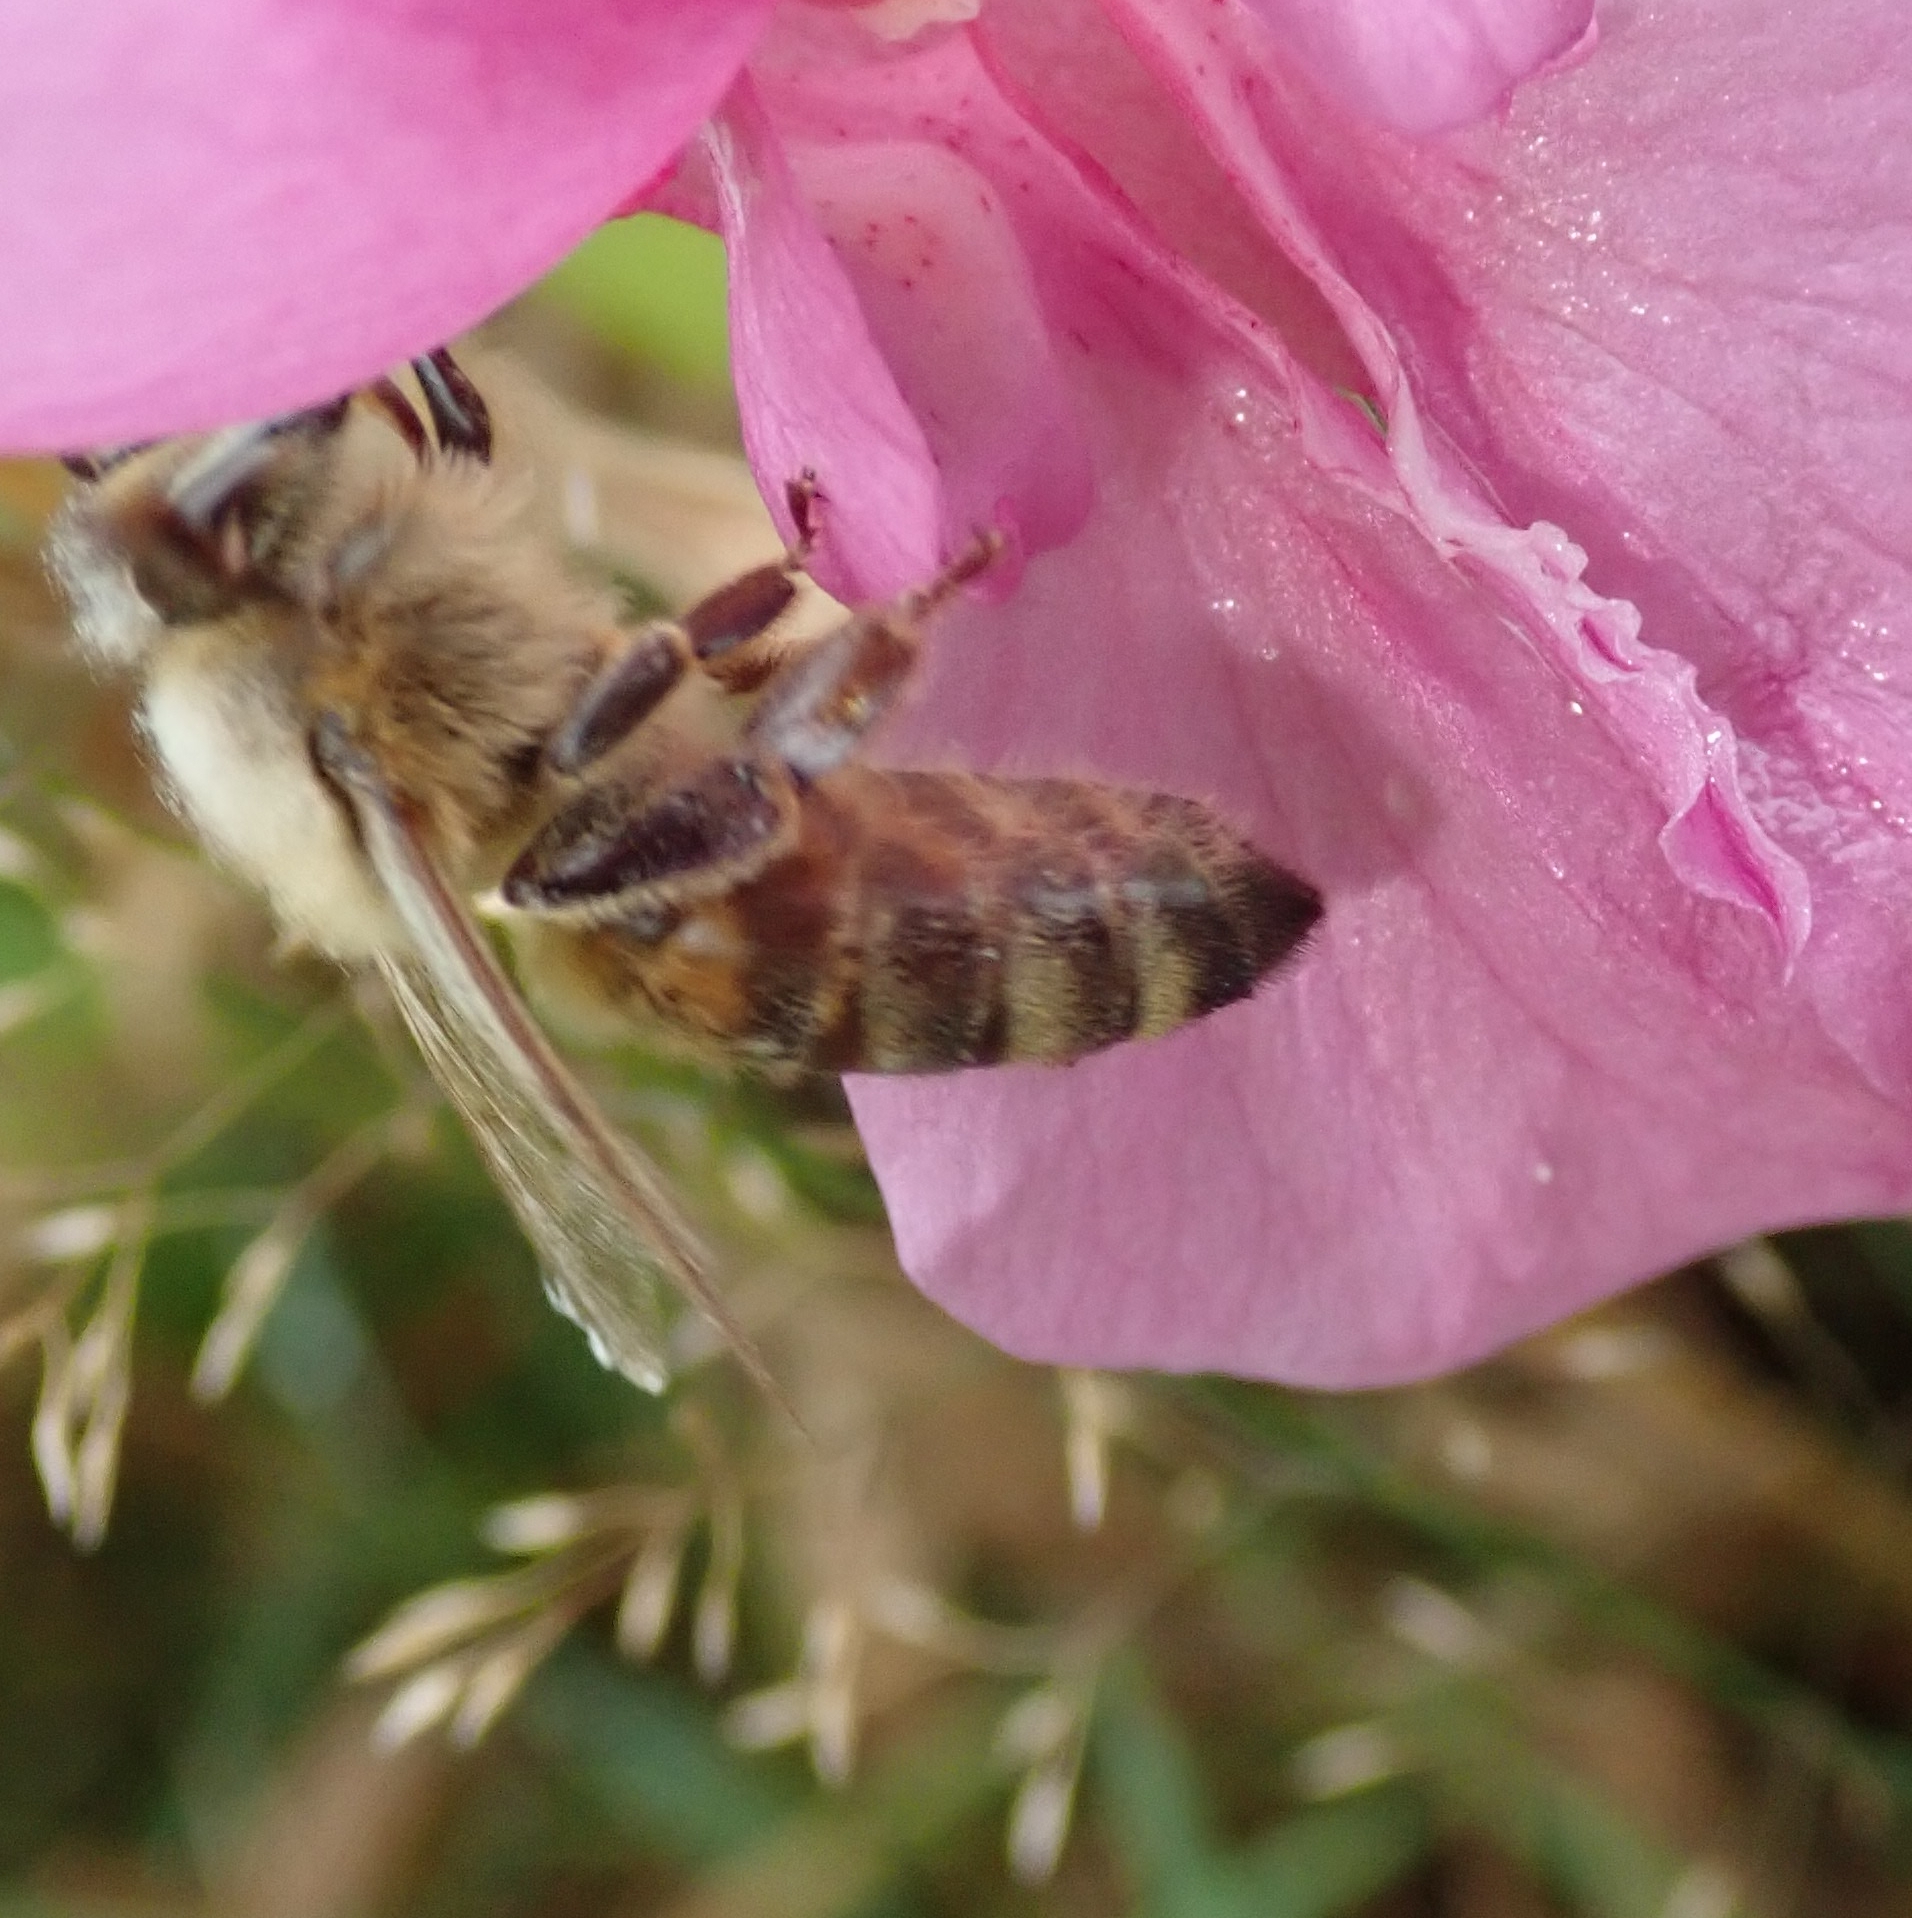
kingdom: Animalia
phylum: Arthropoda
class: Insecta
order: Hymenoptera
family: Apidae
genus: Apis
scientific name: Apis mellifera
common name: Honey bee
